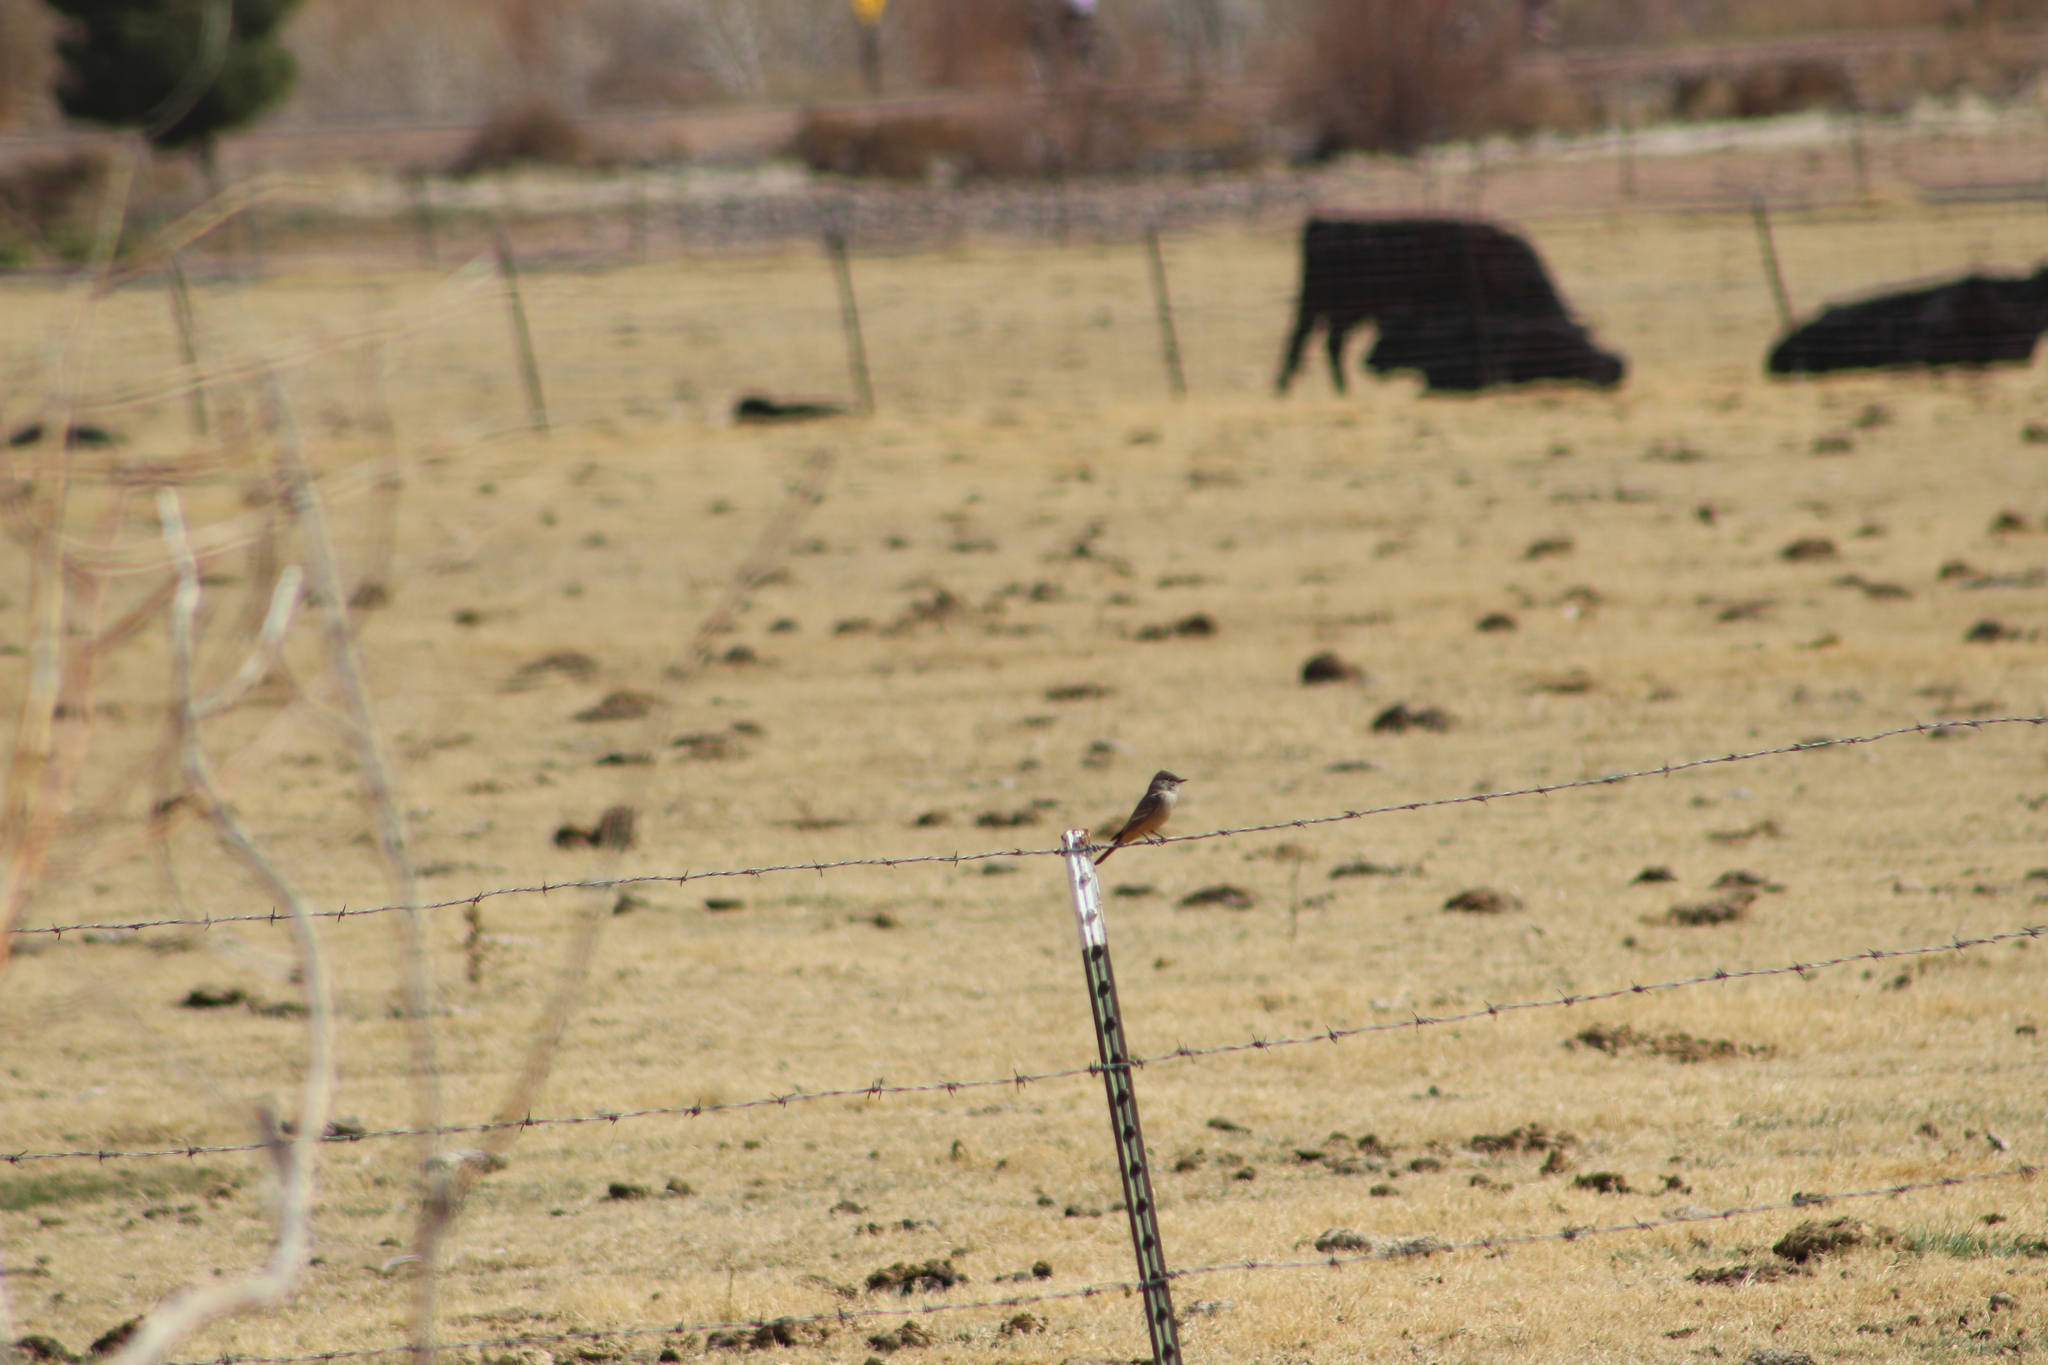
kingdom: Animalia
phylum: Chordata
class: Aves
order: Passeriformes
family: Tyrannidae
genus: Sayornis
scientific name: Sayornis saya
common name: Say's phoebe
